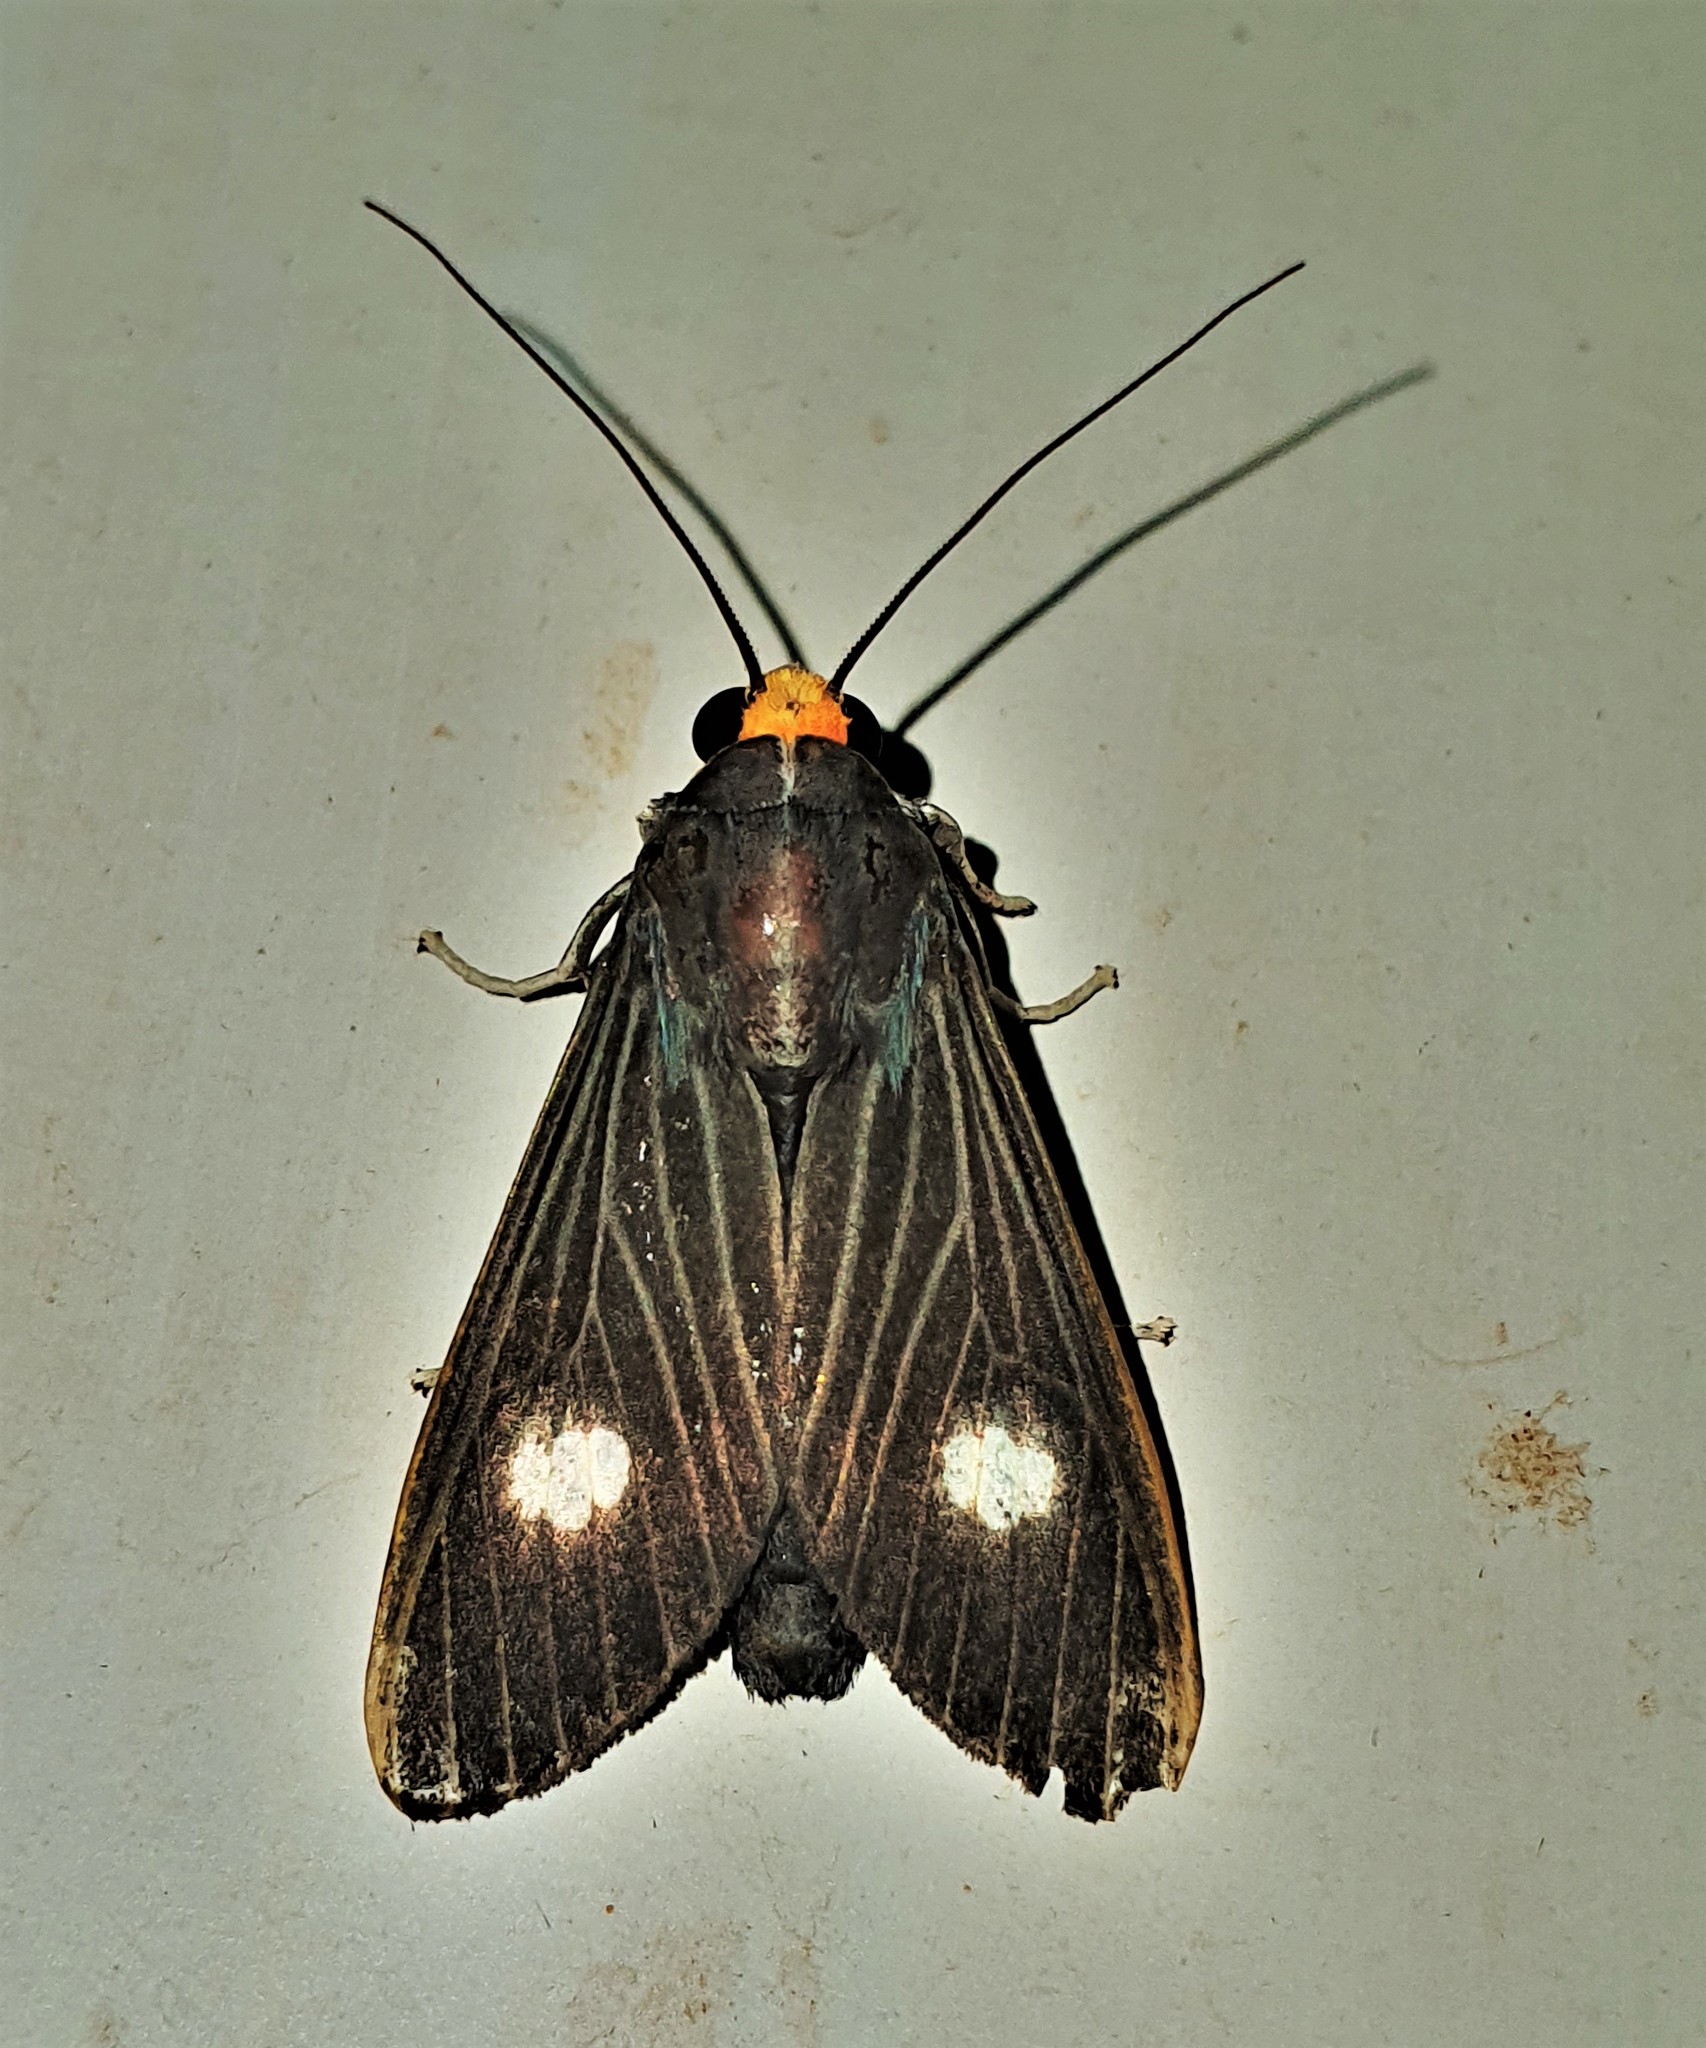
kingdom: Animalia
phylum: Arthropoda
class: Insecta
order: Lepidoptera
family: Erebidae
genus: Rhipha
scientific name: Rhipha albiplaga
